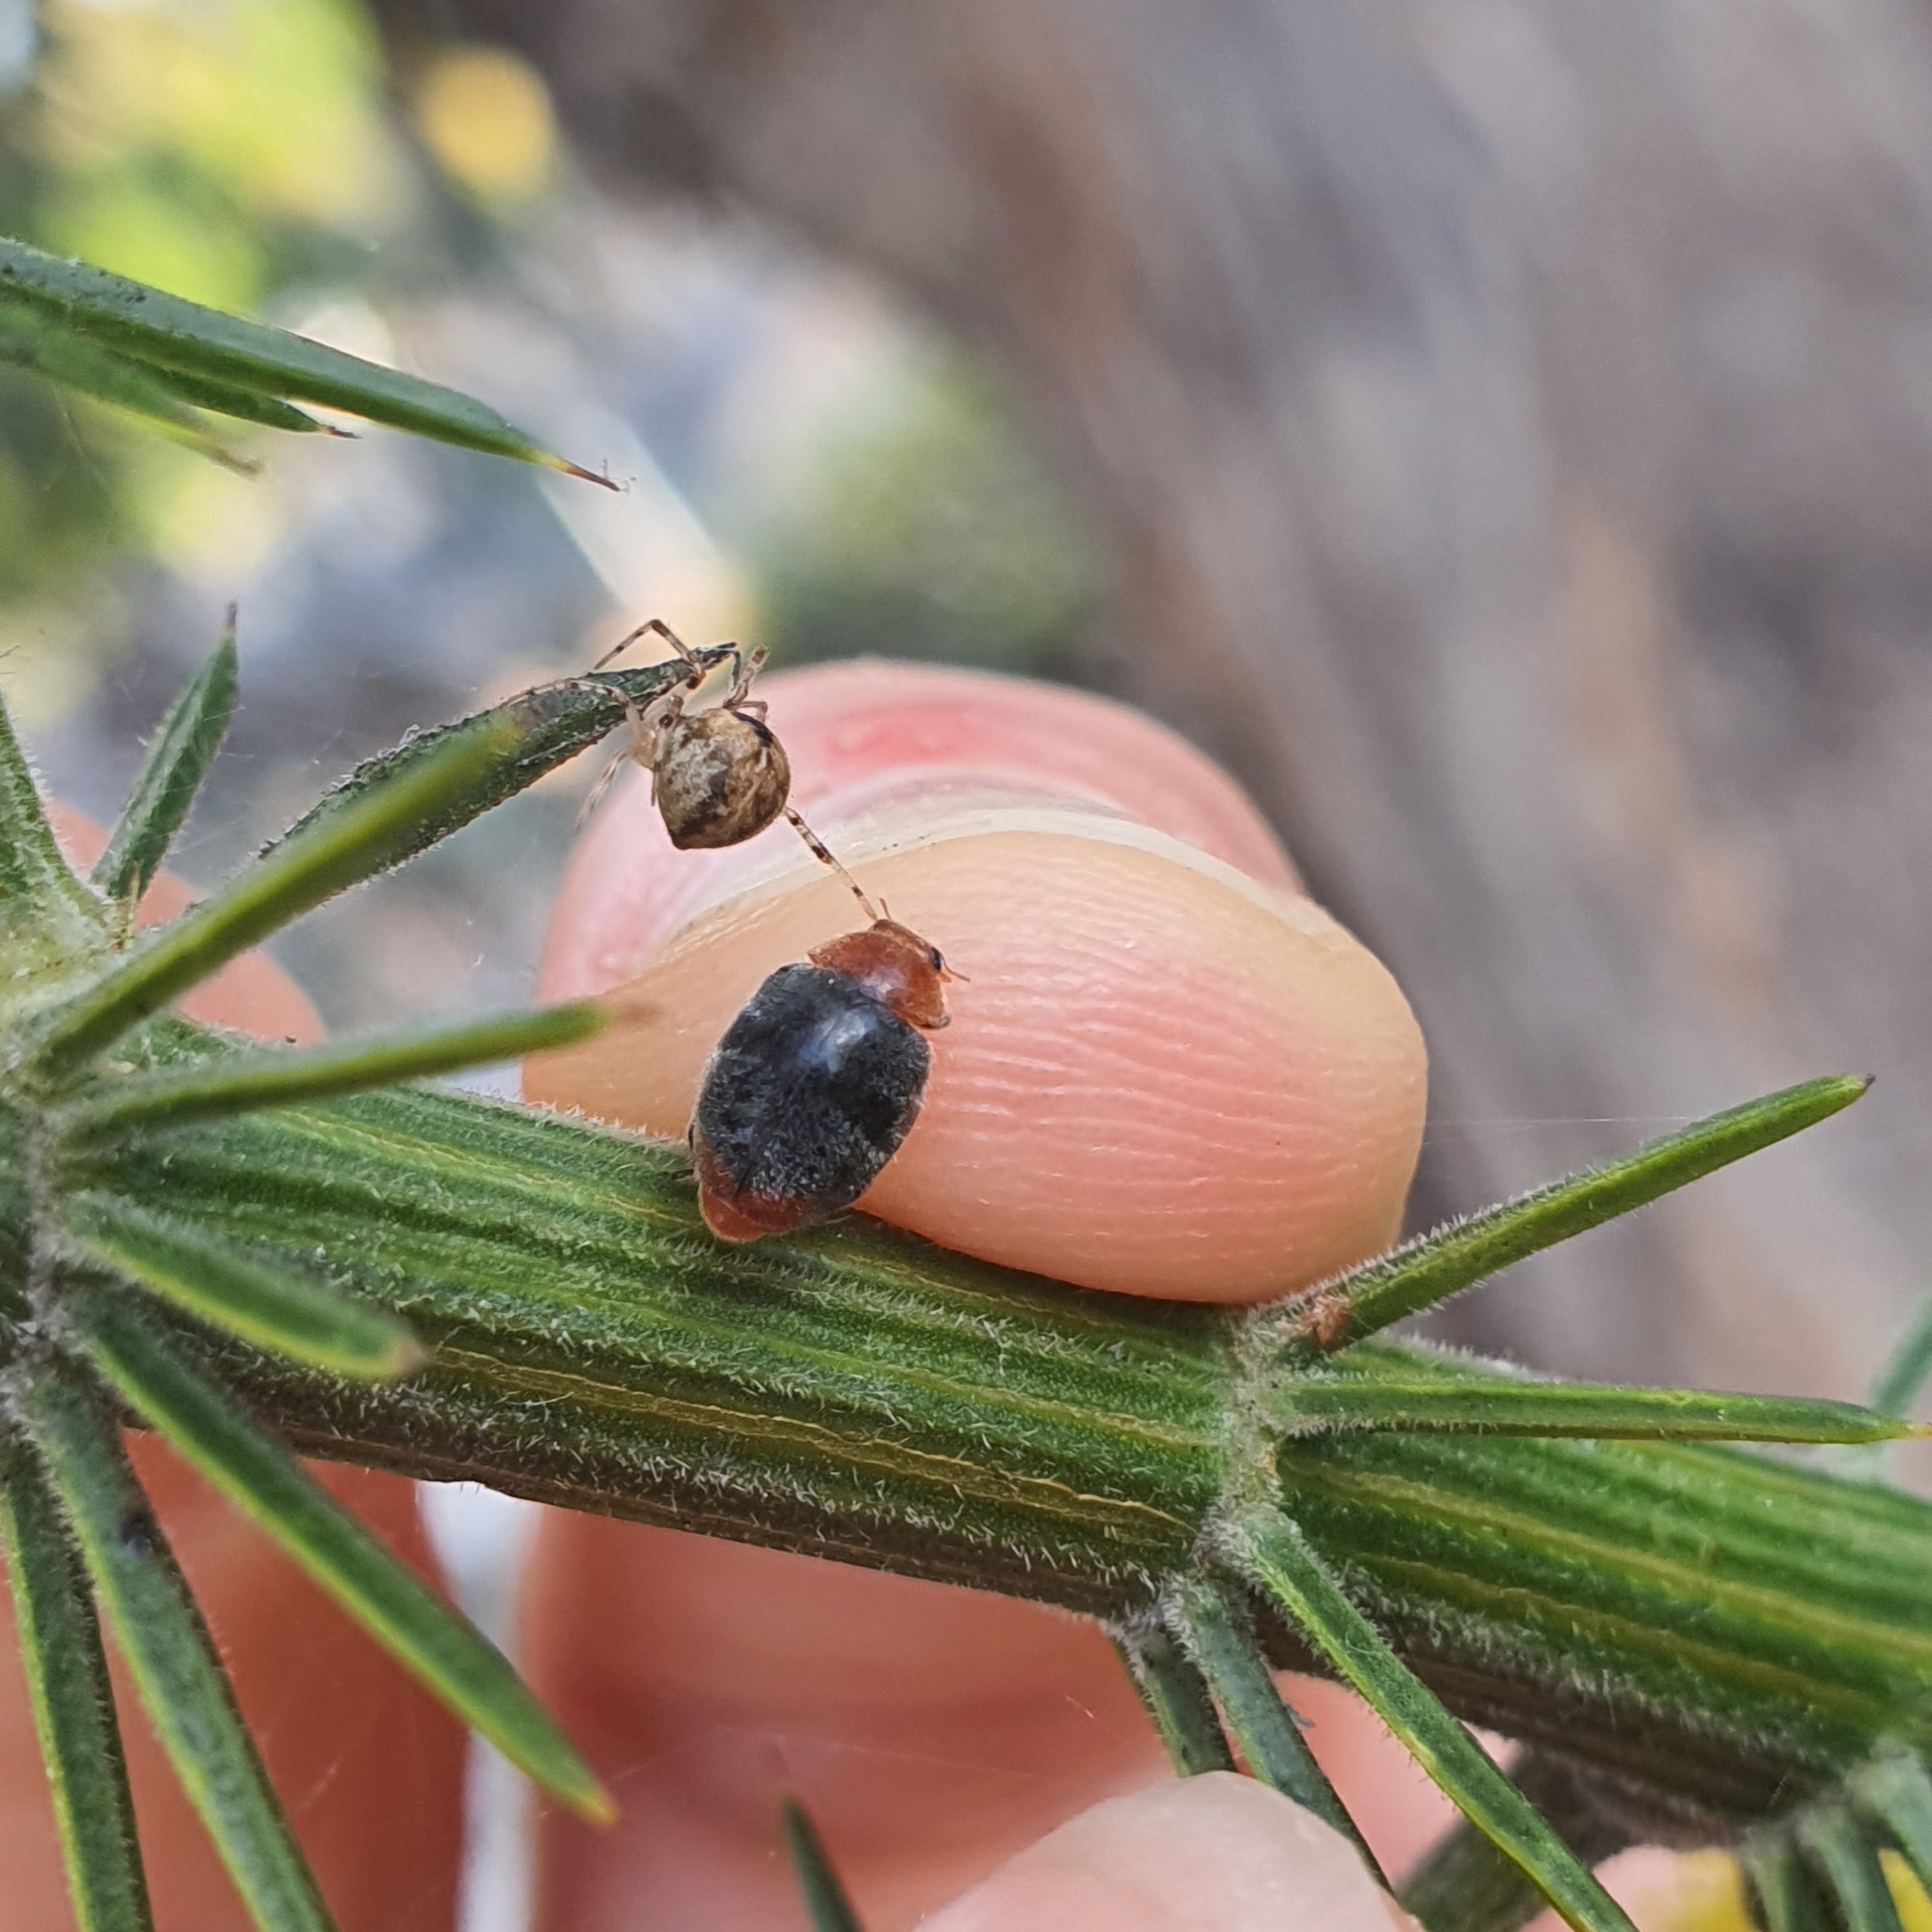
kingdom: Animalia
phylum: Arthropoda
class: Insecta
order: Coleoptera
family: Coccinellidae
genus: Cryptolaemus
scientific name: Cryptolaemus montrouzieri
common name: Mealybug destroyer
